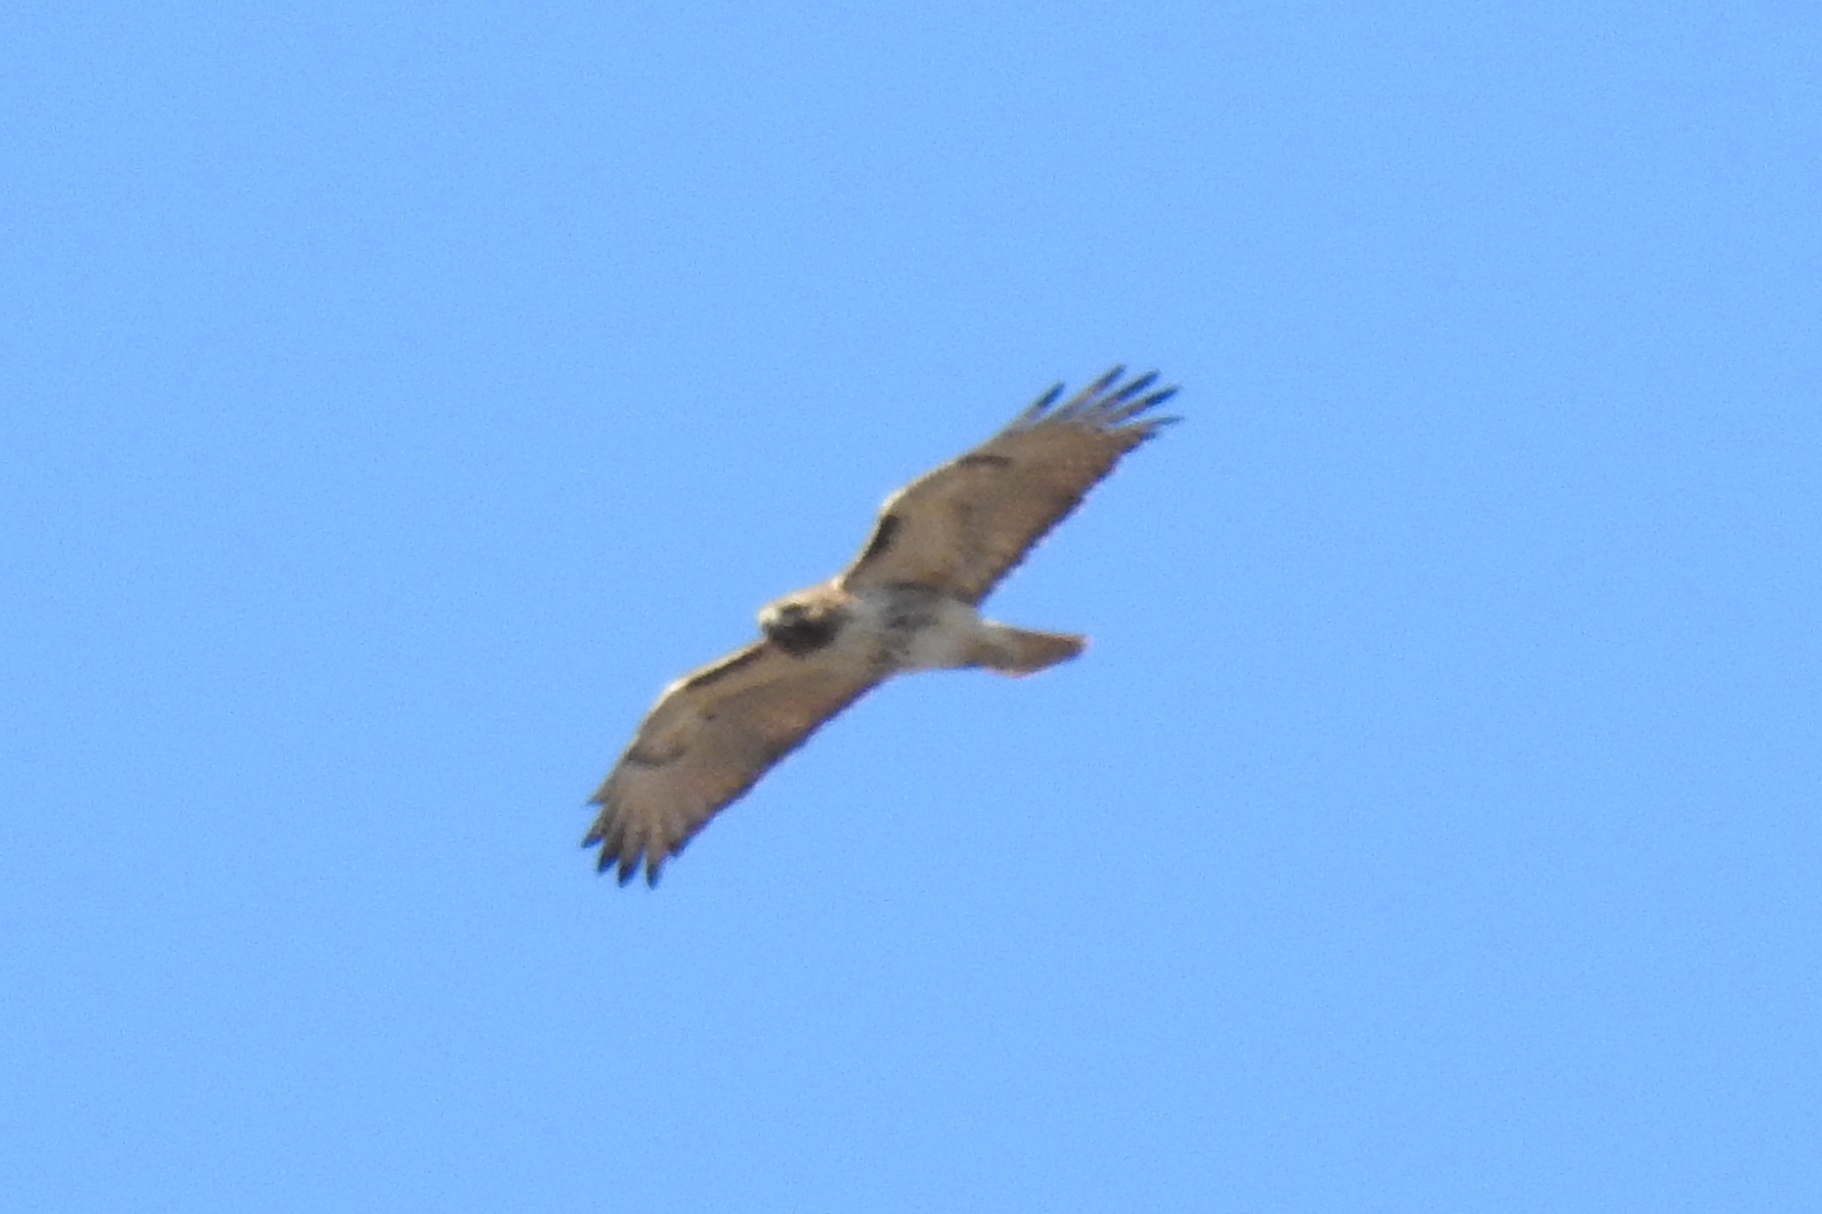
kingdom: Animalia
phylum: Chordata
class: Aves
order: Accipitriformes
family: Accipitridae
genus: Buteo
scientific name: Buteo jamaicensis
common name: Red-tailed hawk
